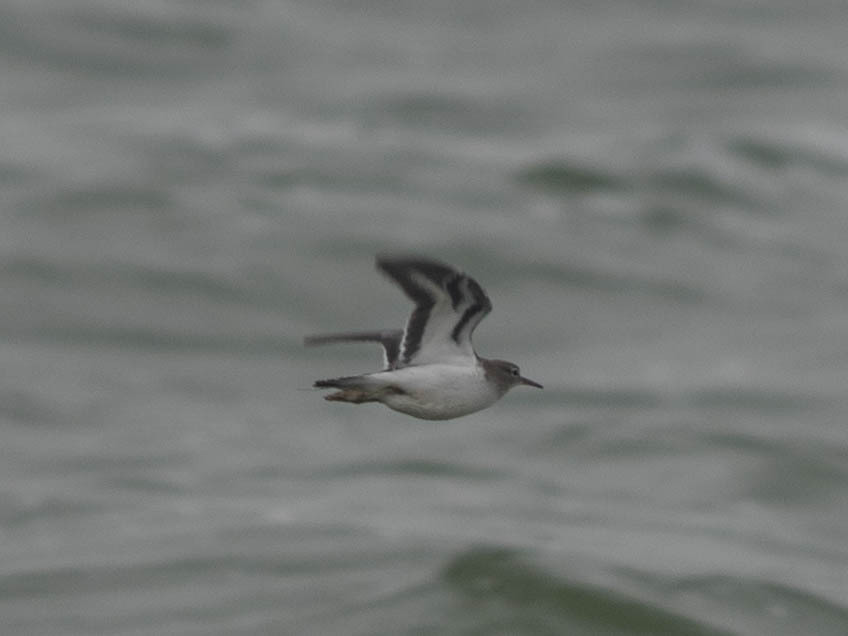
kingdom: Animalia
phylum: Chordata
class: Aves
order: Charadriiformes
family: Scolopacidae
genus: Actitis
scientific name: Actitis macularius
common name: Spotted sandpiper
